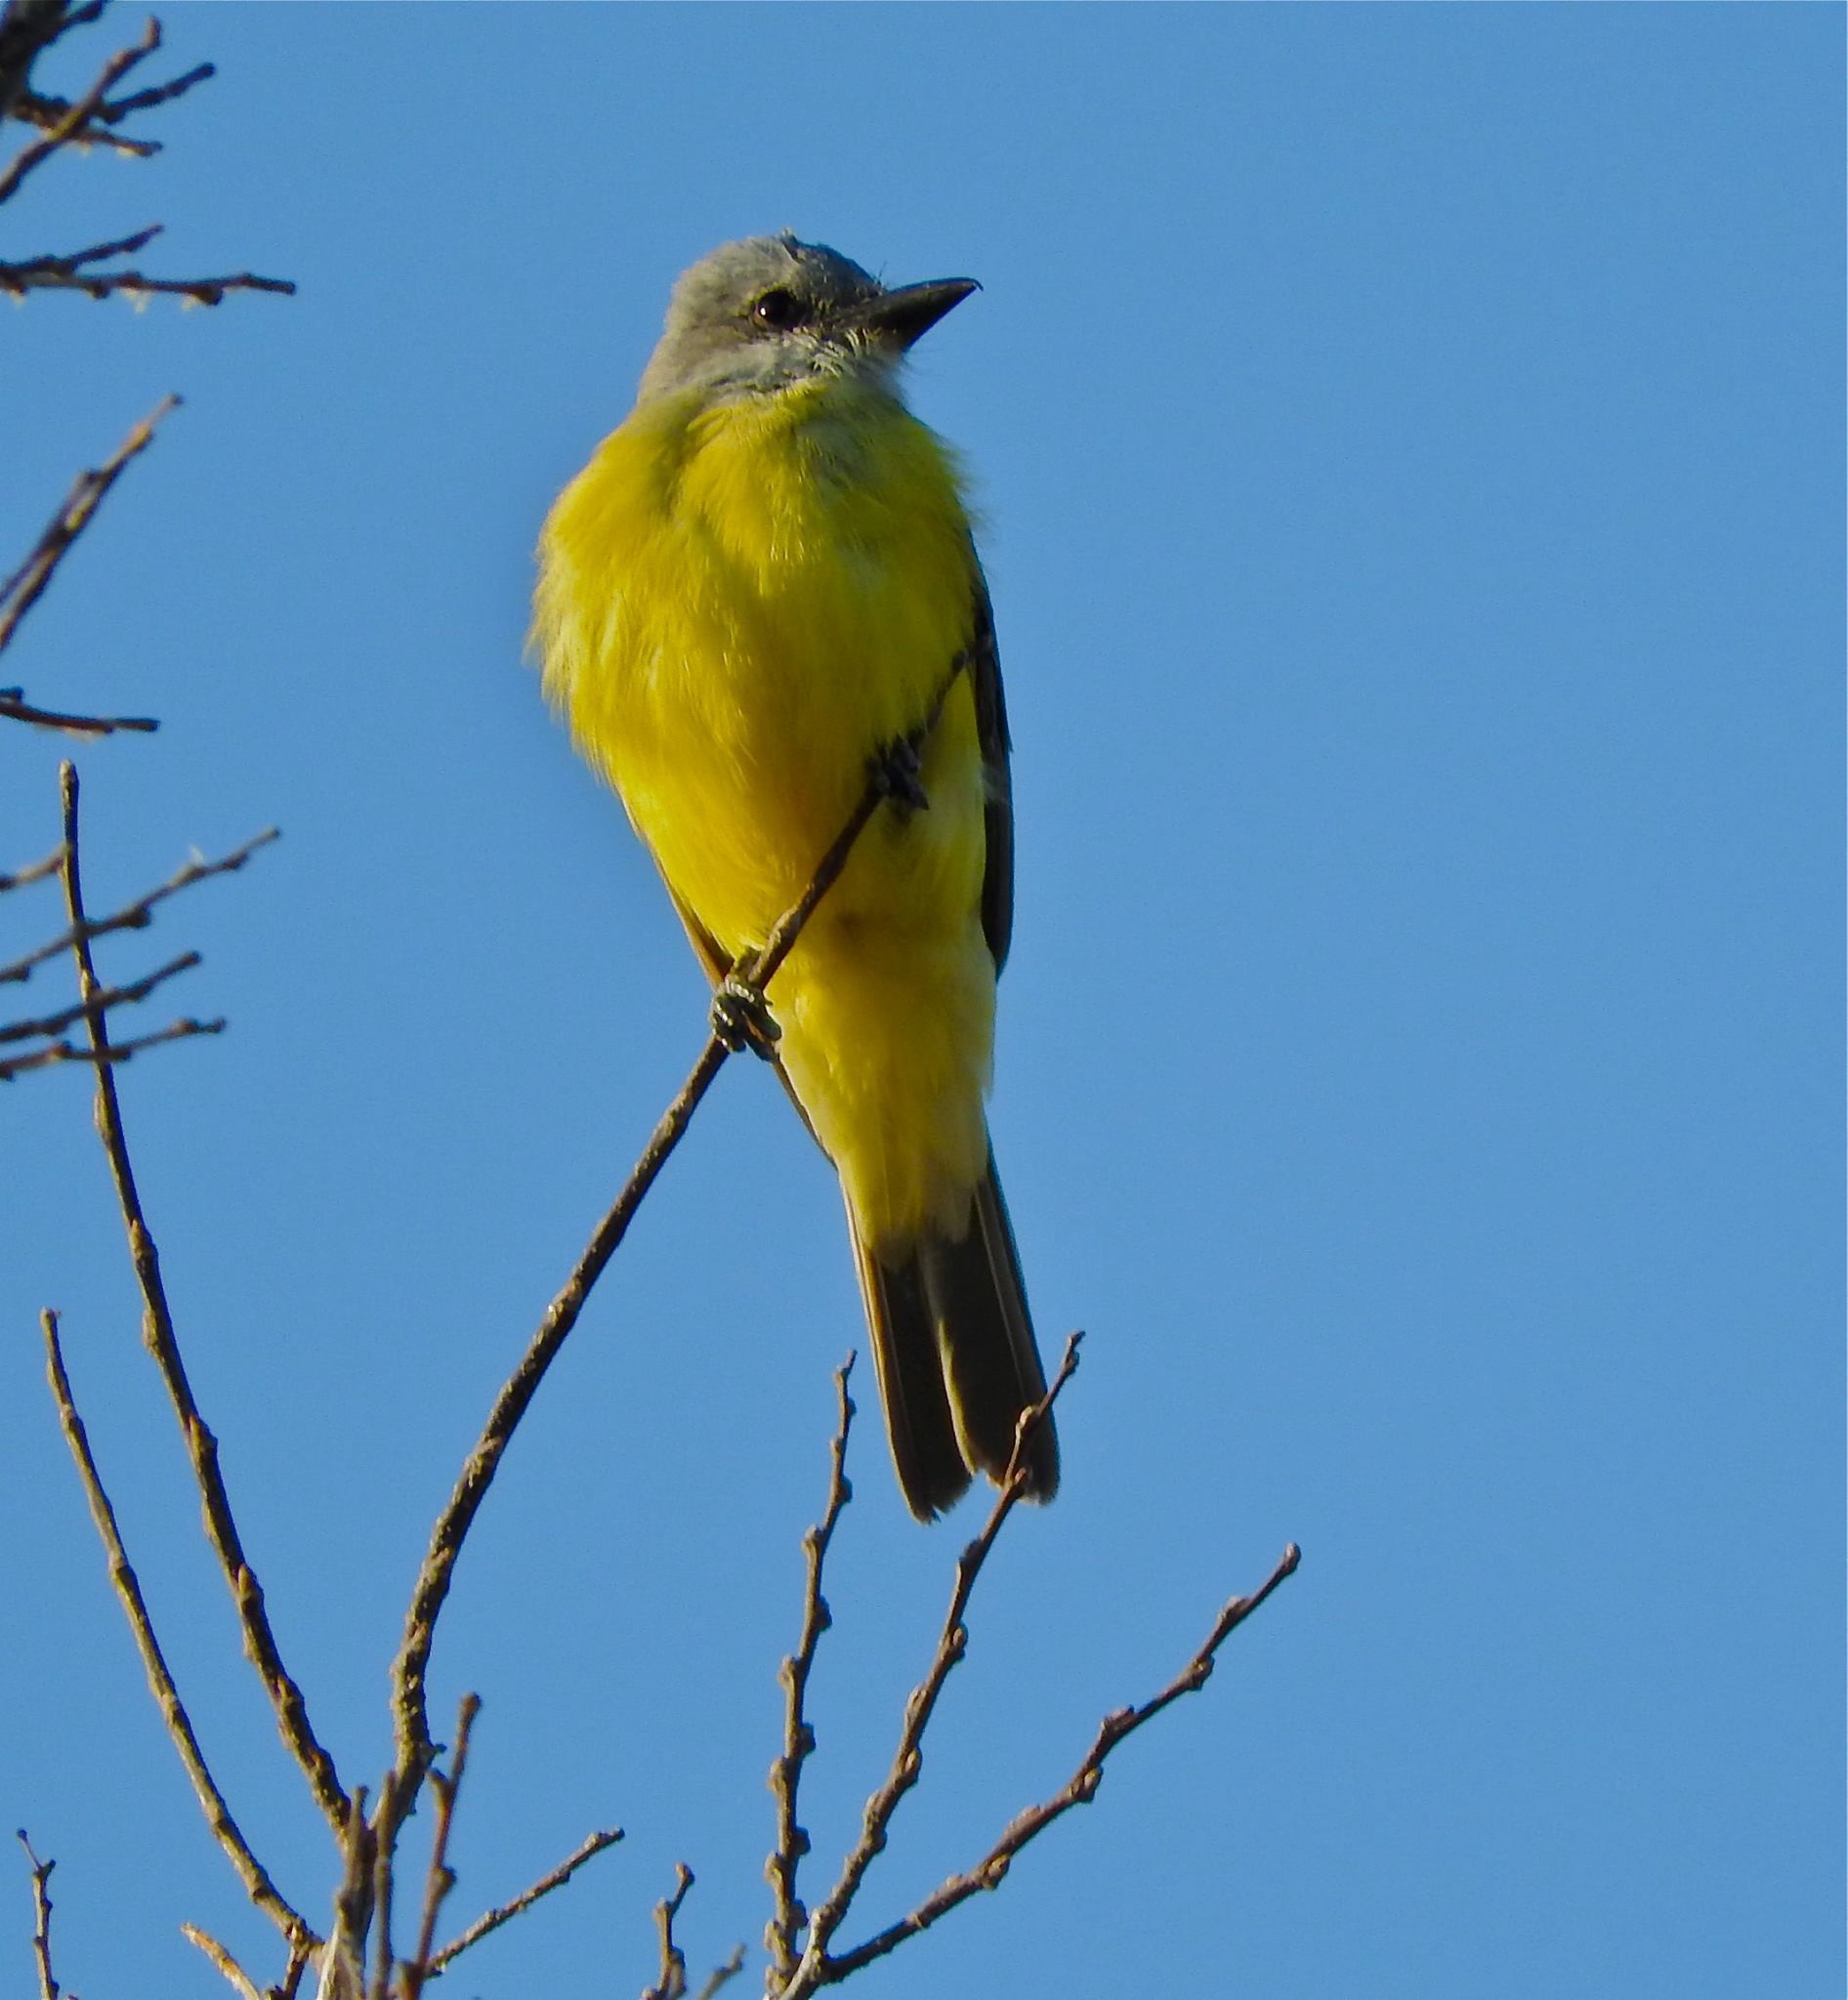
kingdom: Animalia
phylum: Chordata
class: Aves
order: Passeriformes
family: Tyrannidae
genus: Tyrannus
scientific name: Tyrannus couchii
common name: Couch's kingbird
